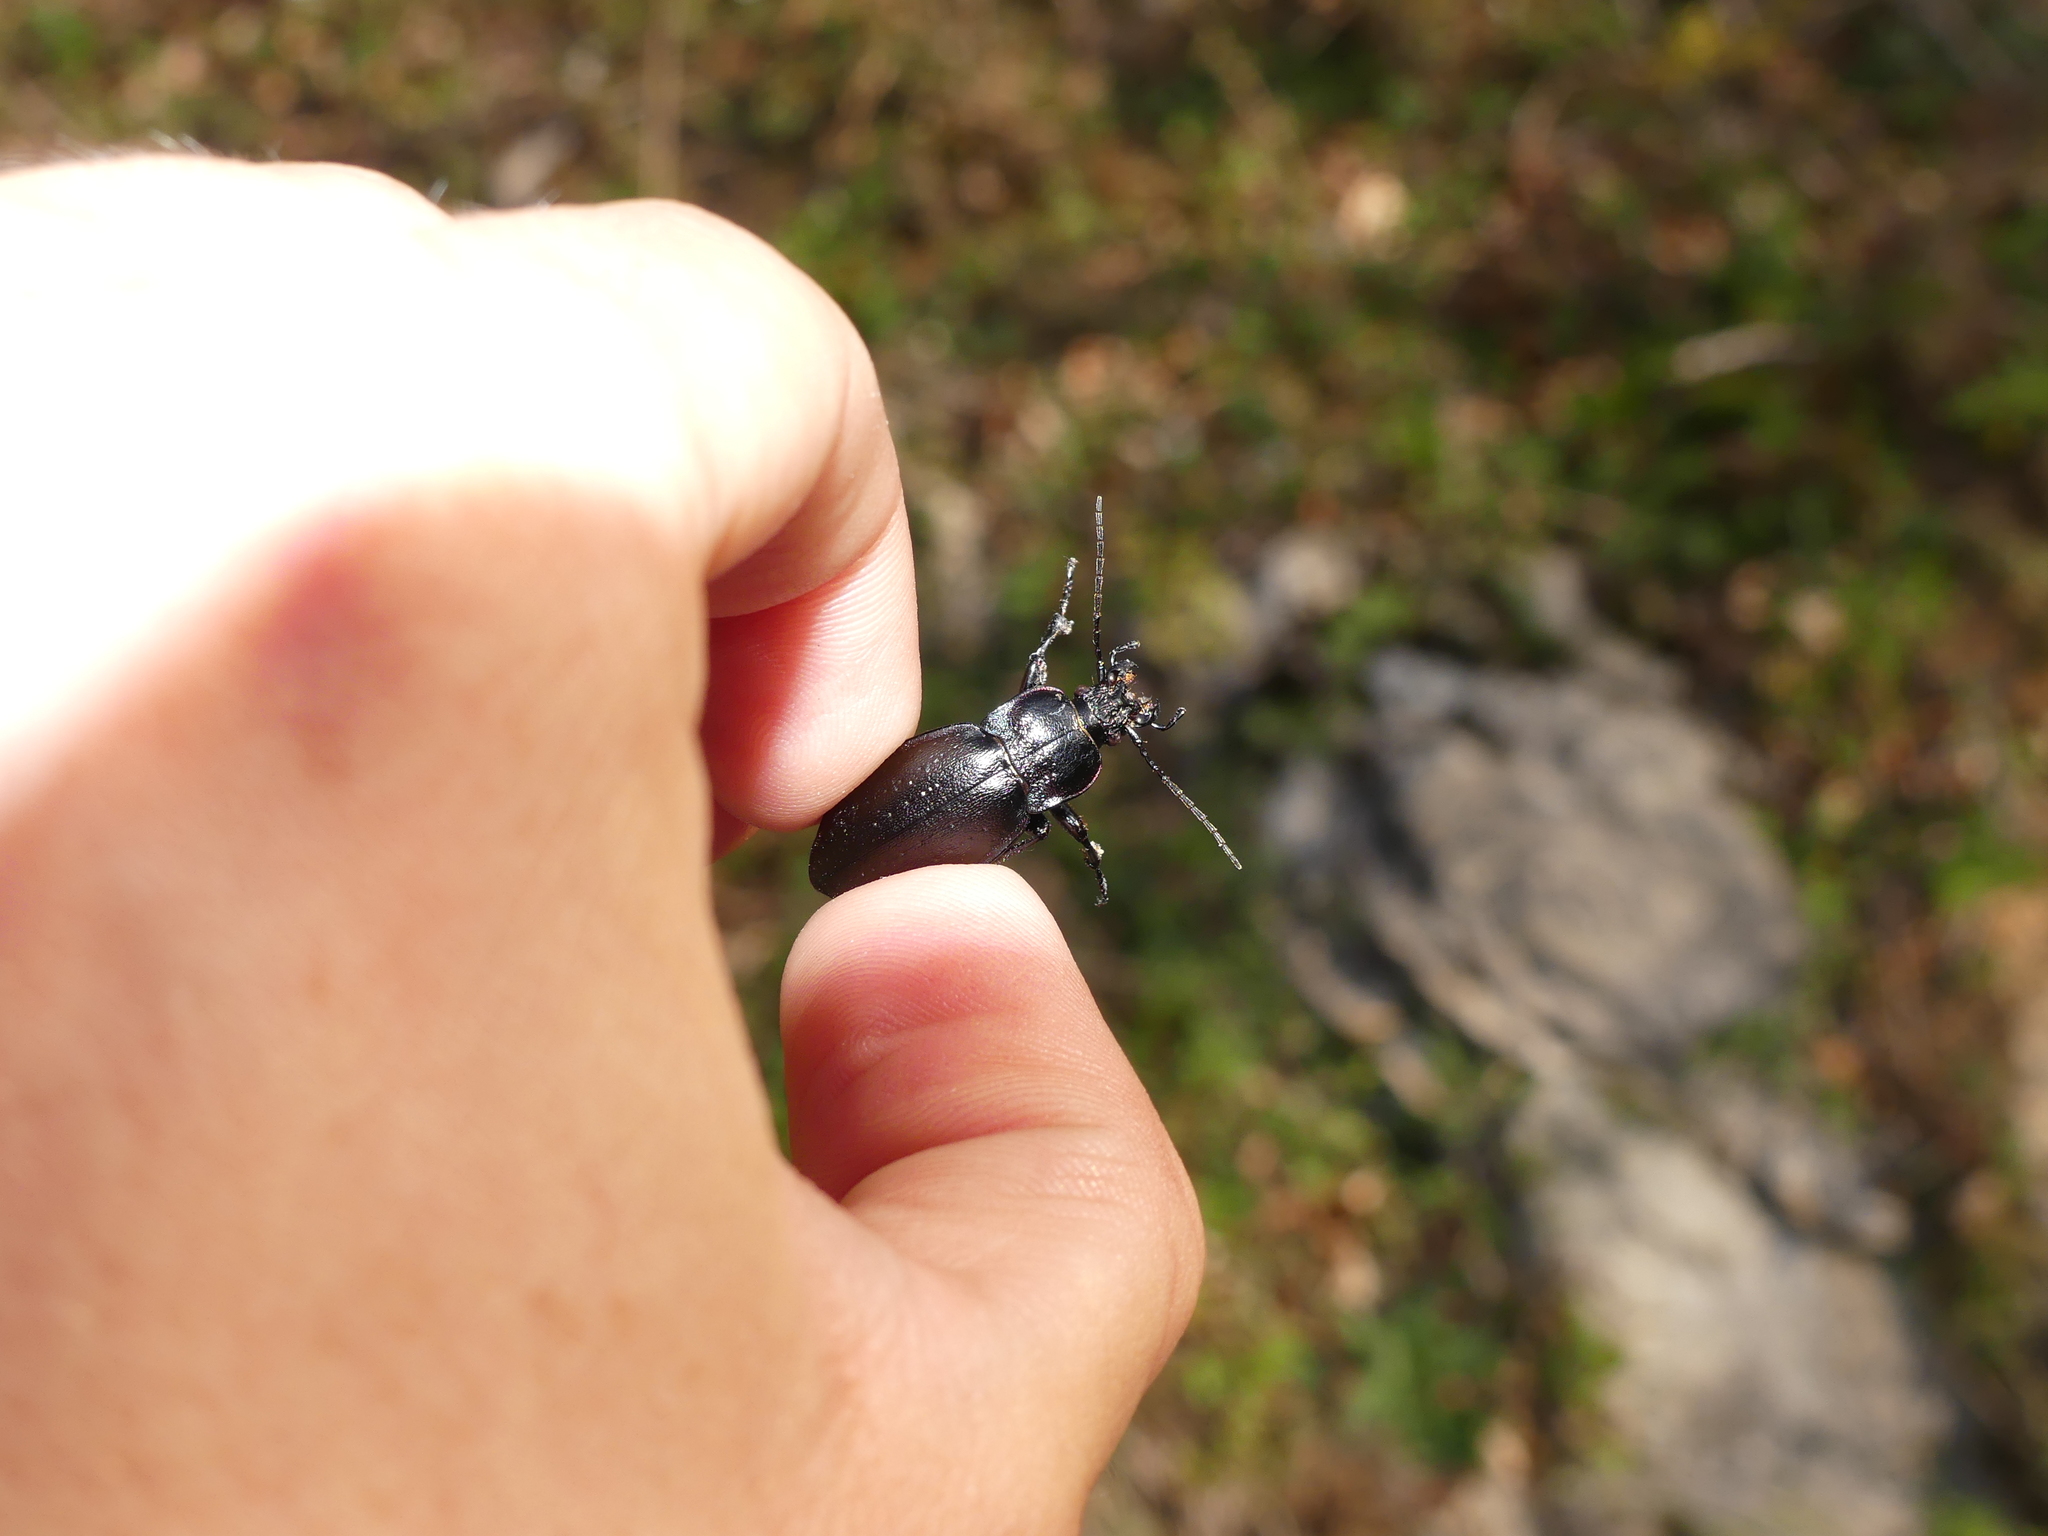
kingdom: Animalia
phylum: Arthropoda
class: Insecta
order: Coleoptera
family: Carabidae
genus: Carabus
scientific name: Carabus nemoralis
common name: European ground beetle
